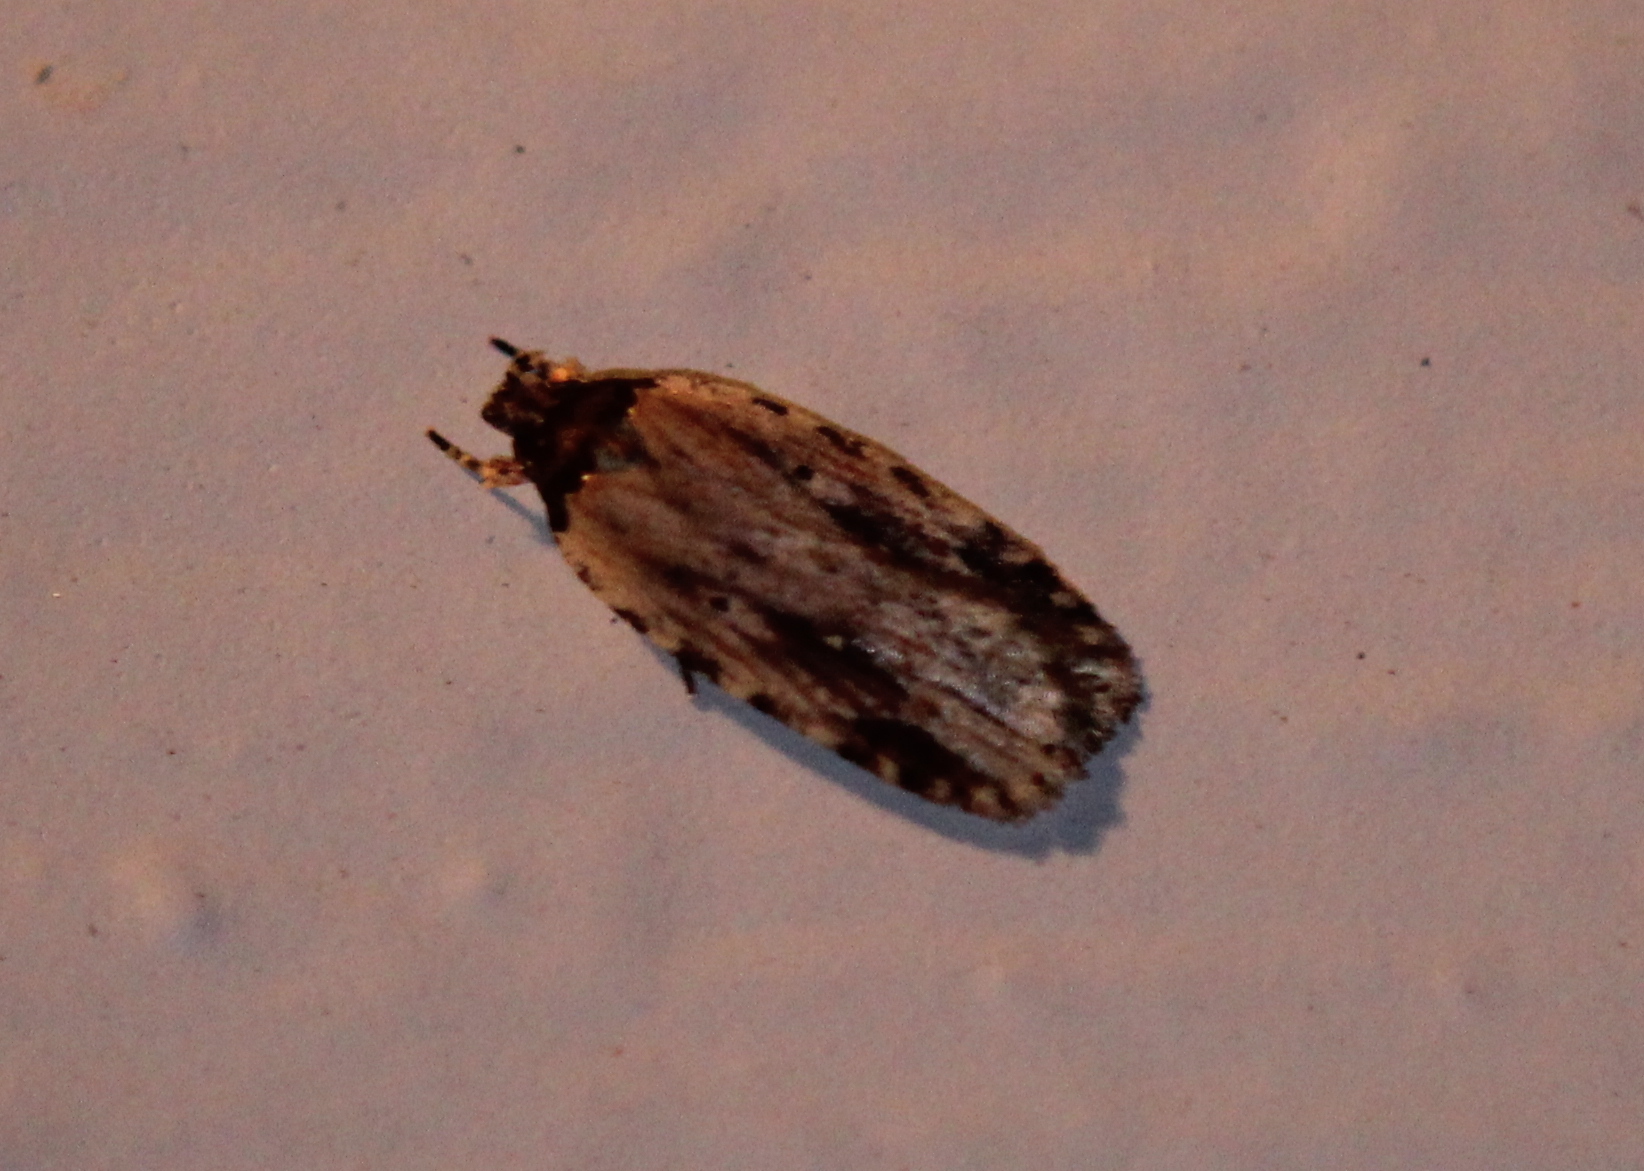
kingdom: Animalia
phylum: Arthropoda
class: Insecta
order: Lepidoptera
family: Depressariidae
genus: Agonopterix
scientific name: Agonopterix atrodorsella
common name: Beggartick leaffolder
